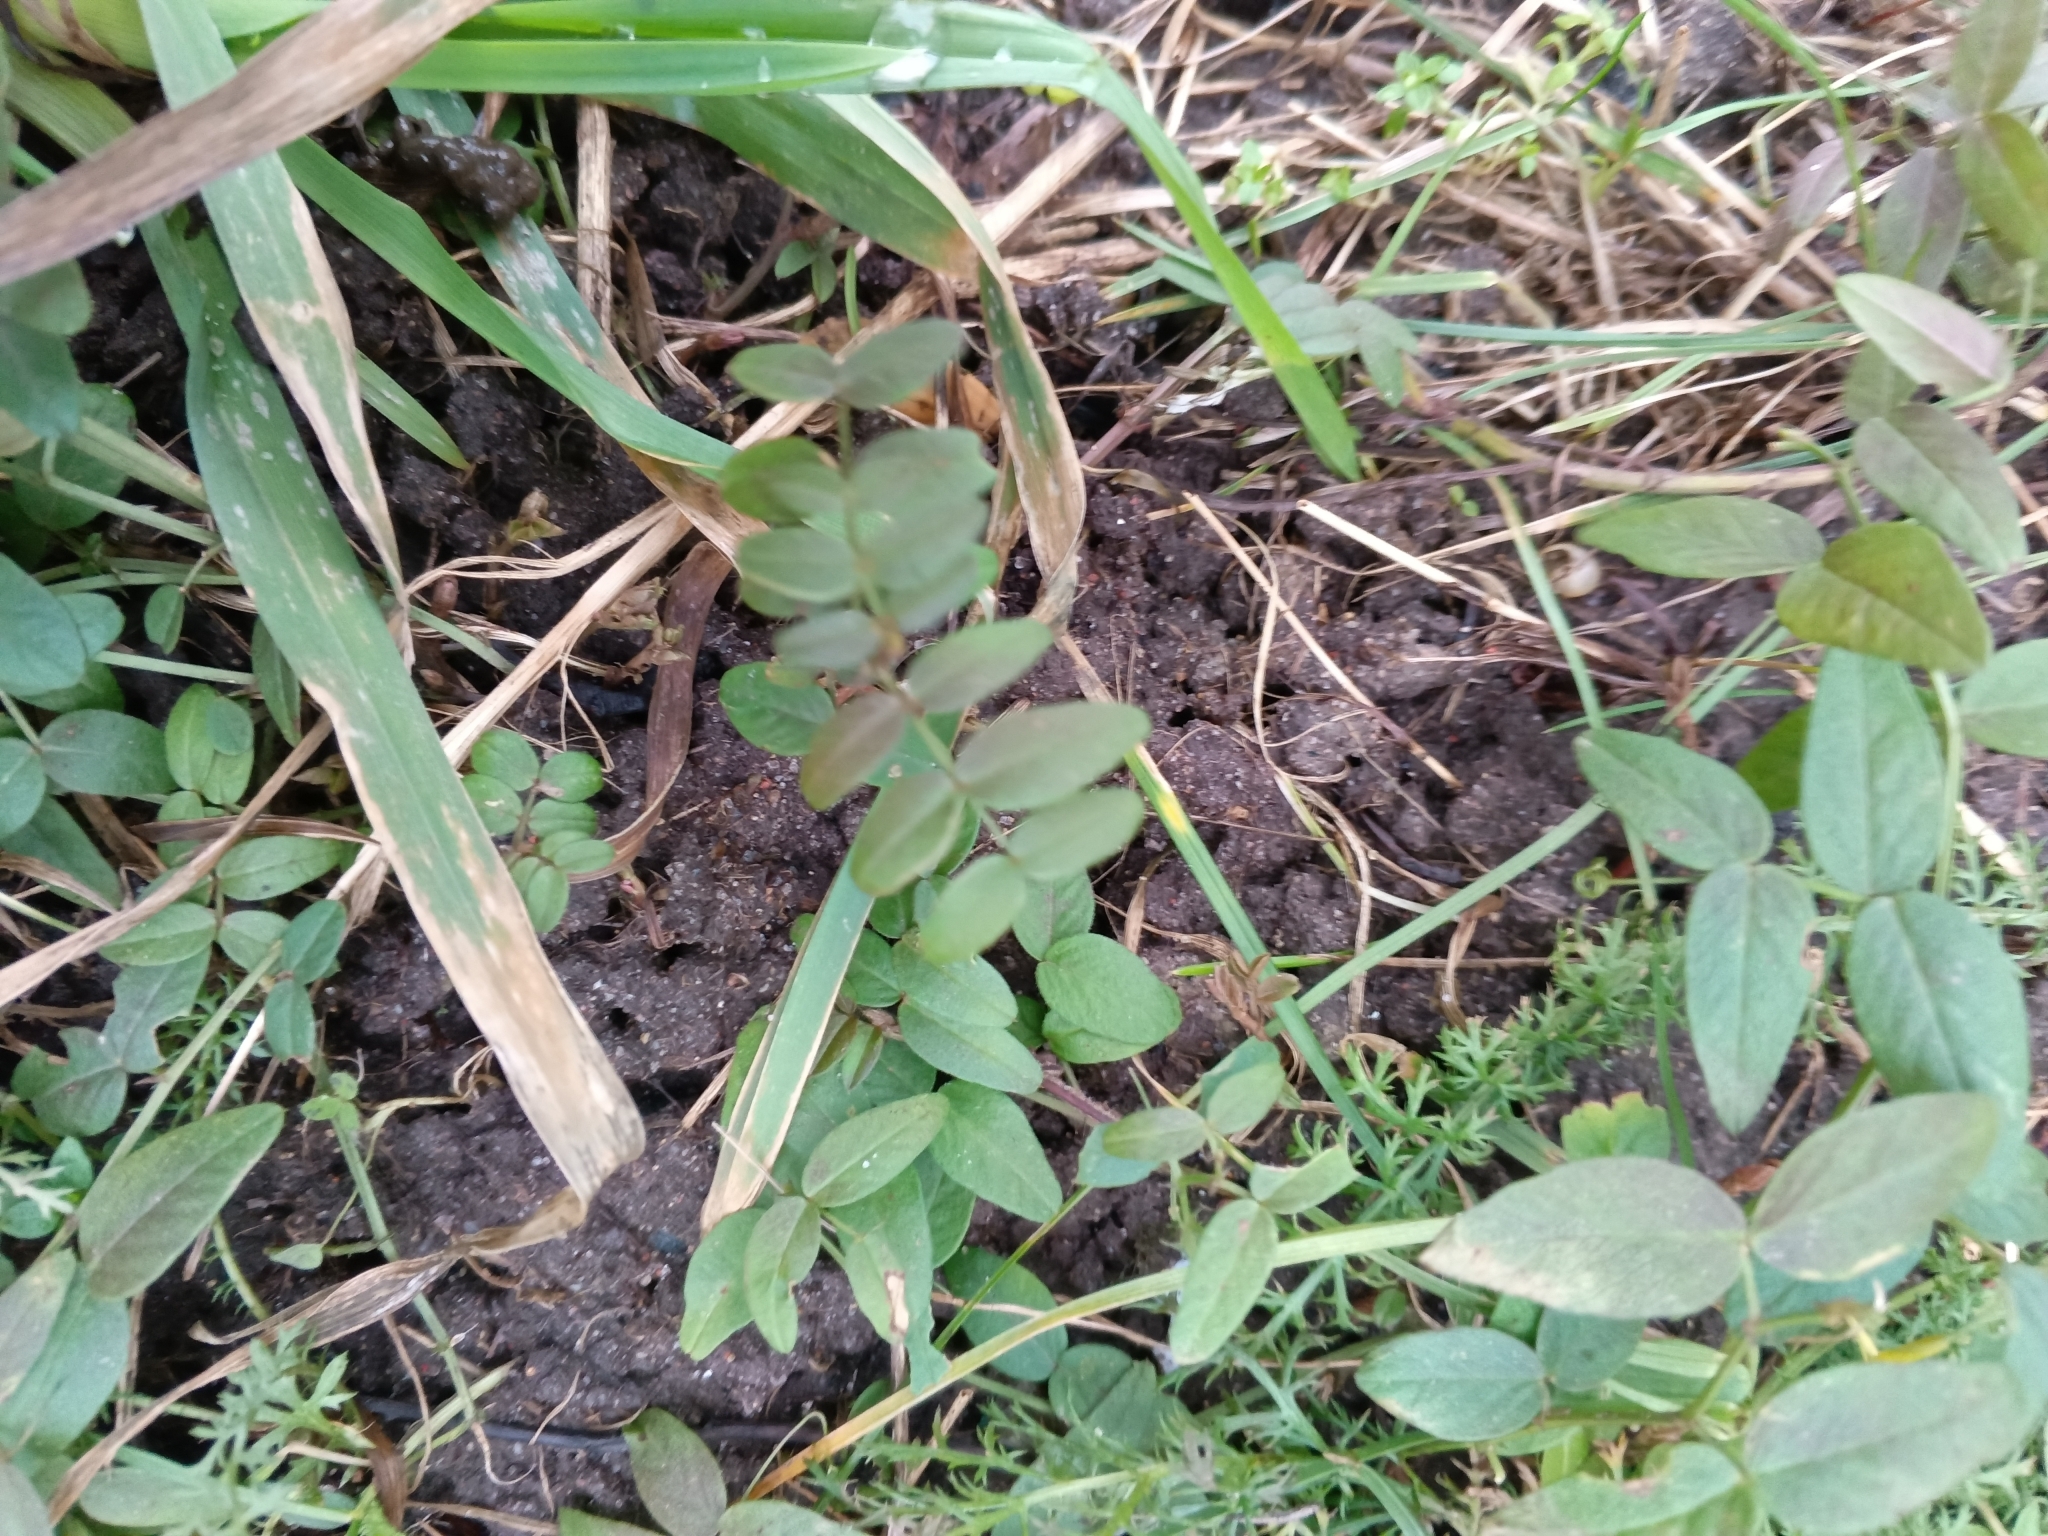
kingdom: Plantae
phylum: Tracheophyta
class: Magnoliopsida
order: Fabales
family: Fabaceae
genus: Vicia
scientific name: Vicia sepium
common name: Bush vetch
